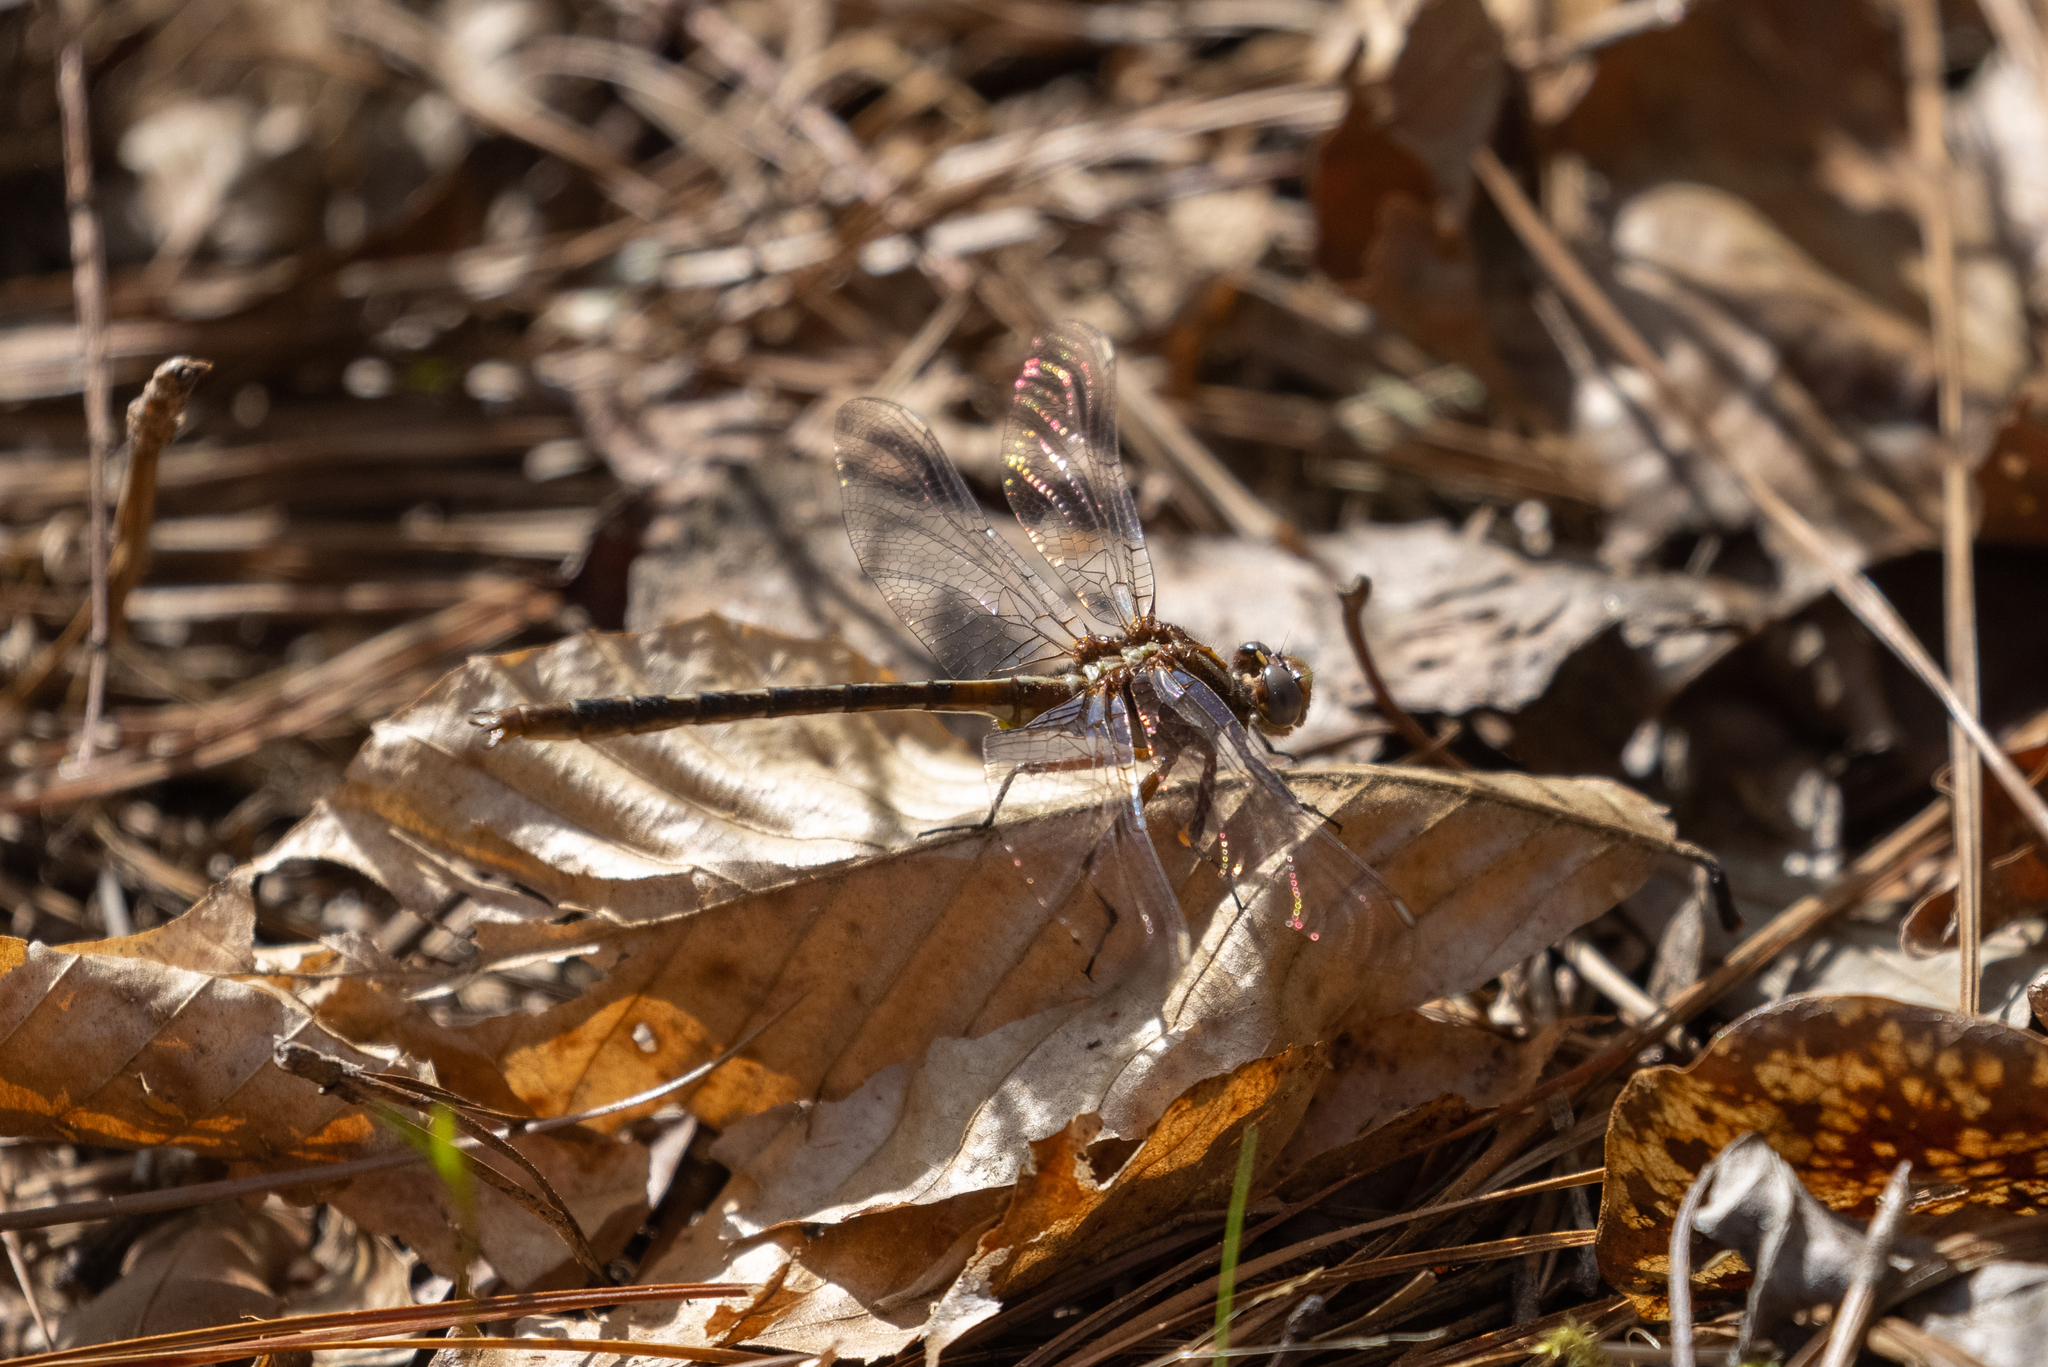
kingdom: Animalia
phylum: Arthropoda
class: Insecta
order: Odonata
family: Gomphidae
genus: Phanogomphus
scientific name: Phanogomphus lividus
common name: Ashy clubtail
